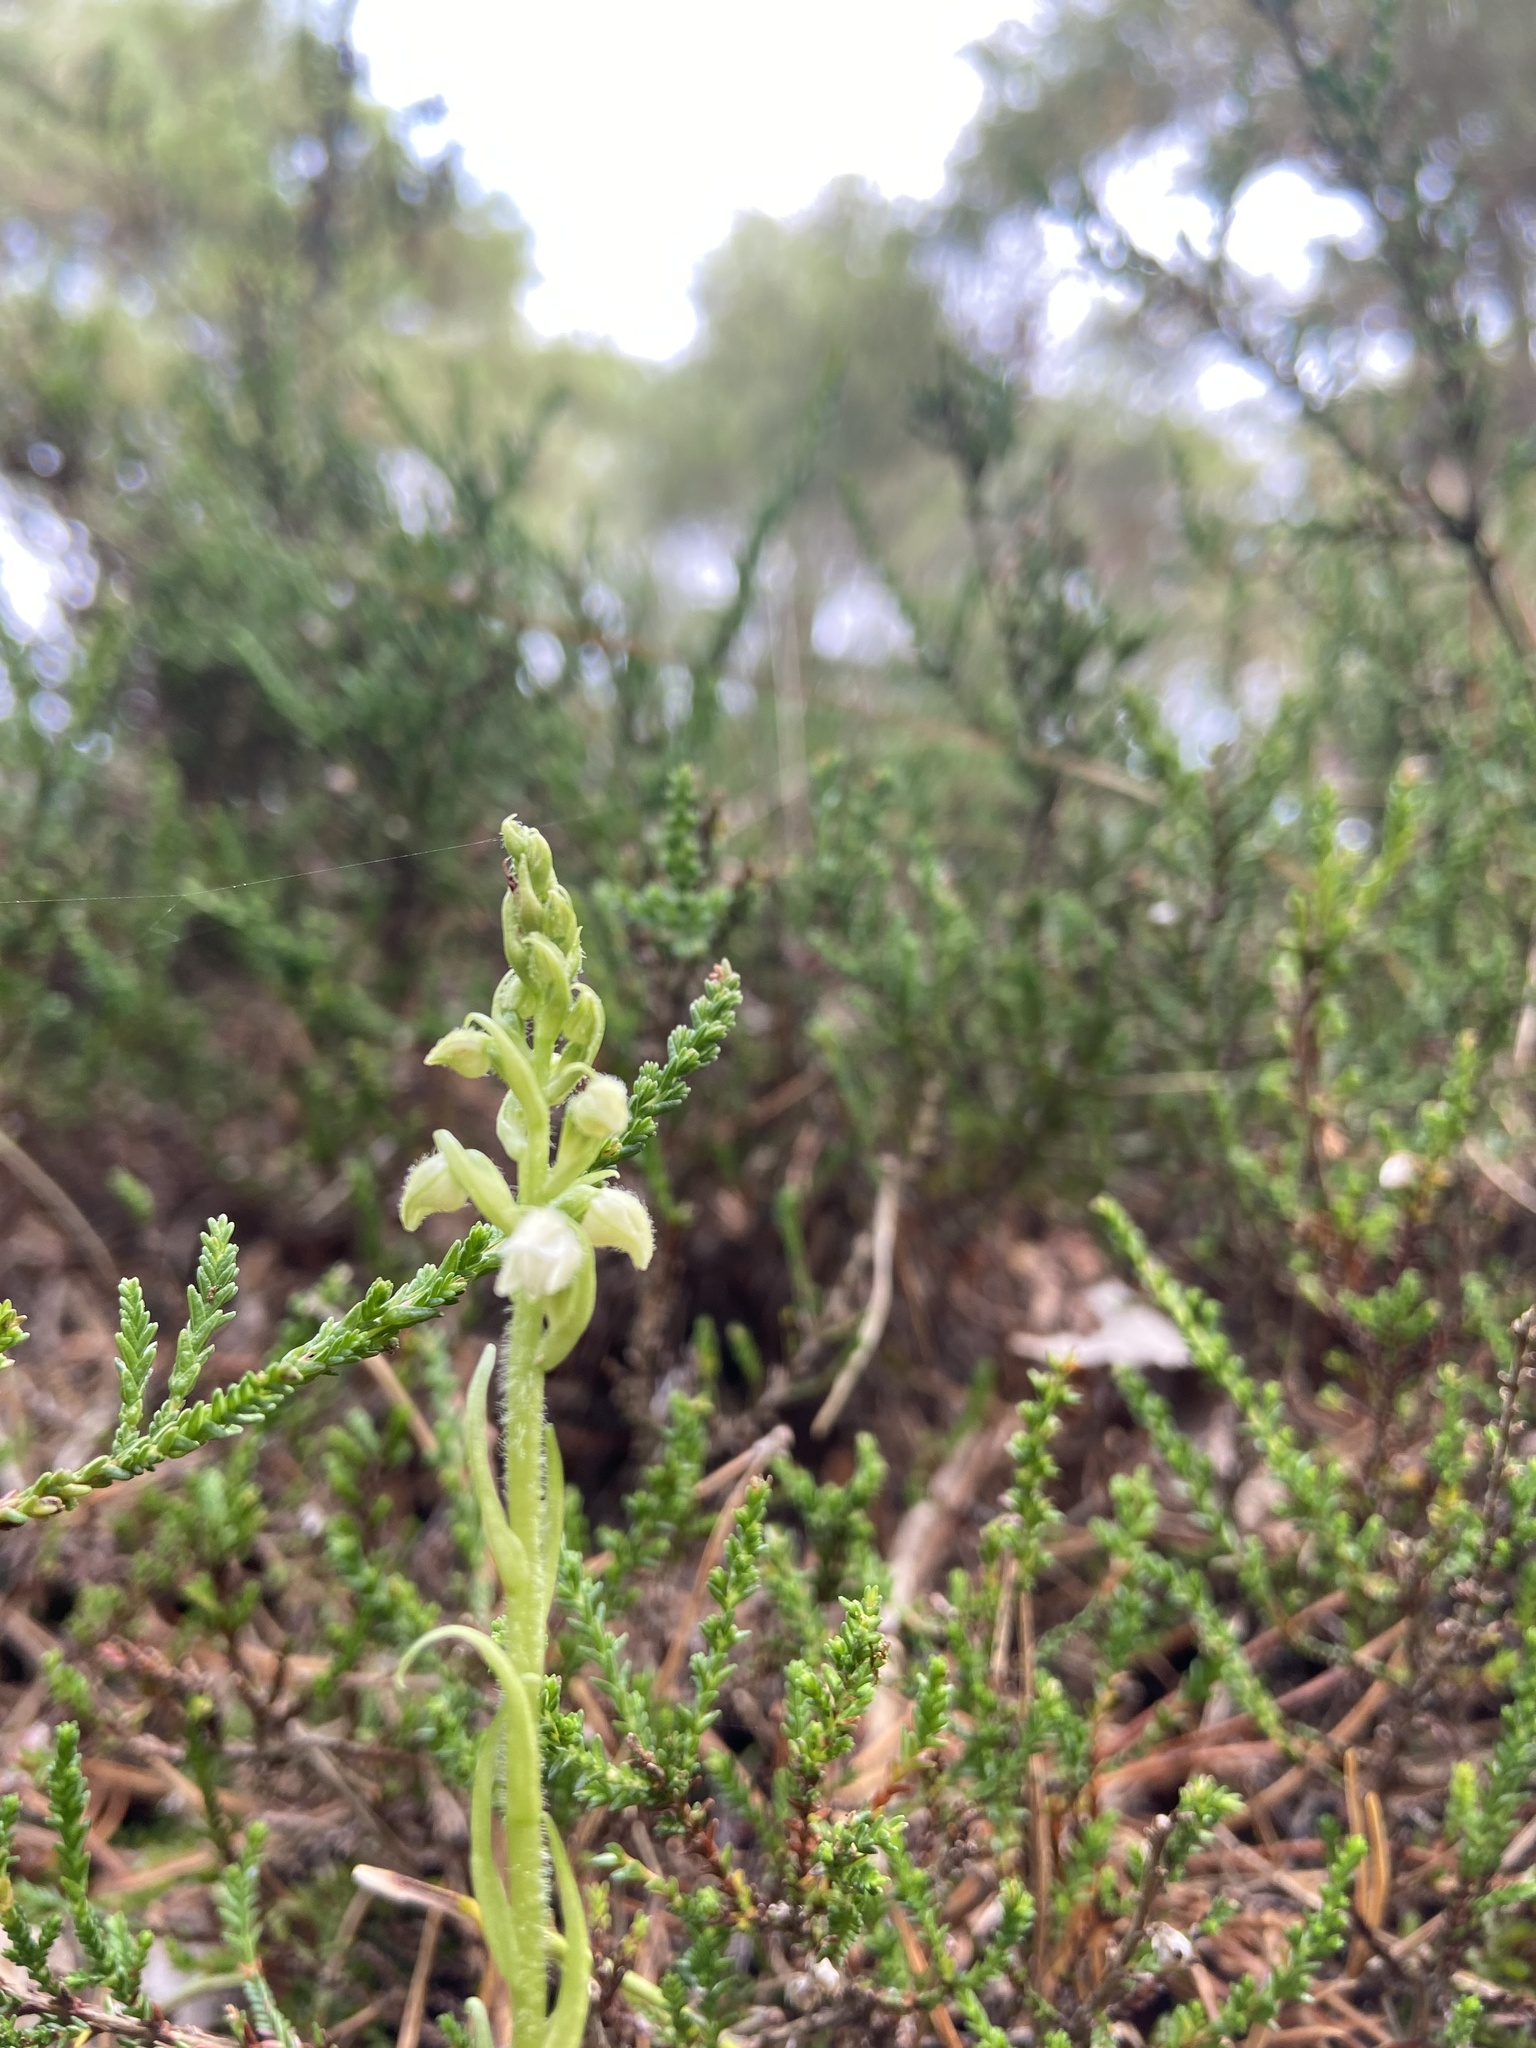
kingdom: Plantae
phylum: Tracheophyta
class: Liliopsida
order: Asparagales
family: Orchidaceae
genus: Goodyera
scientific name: Goodyera repens
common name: Creeping lady's-tresses
